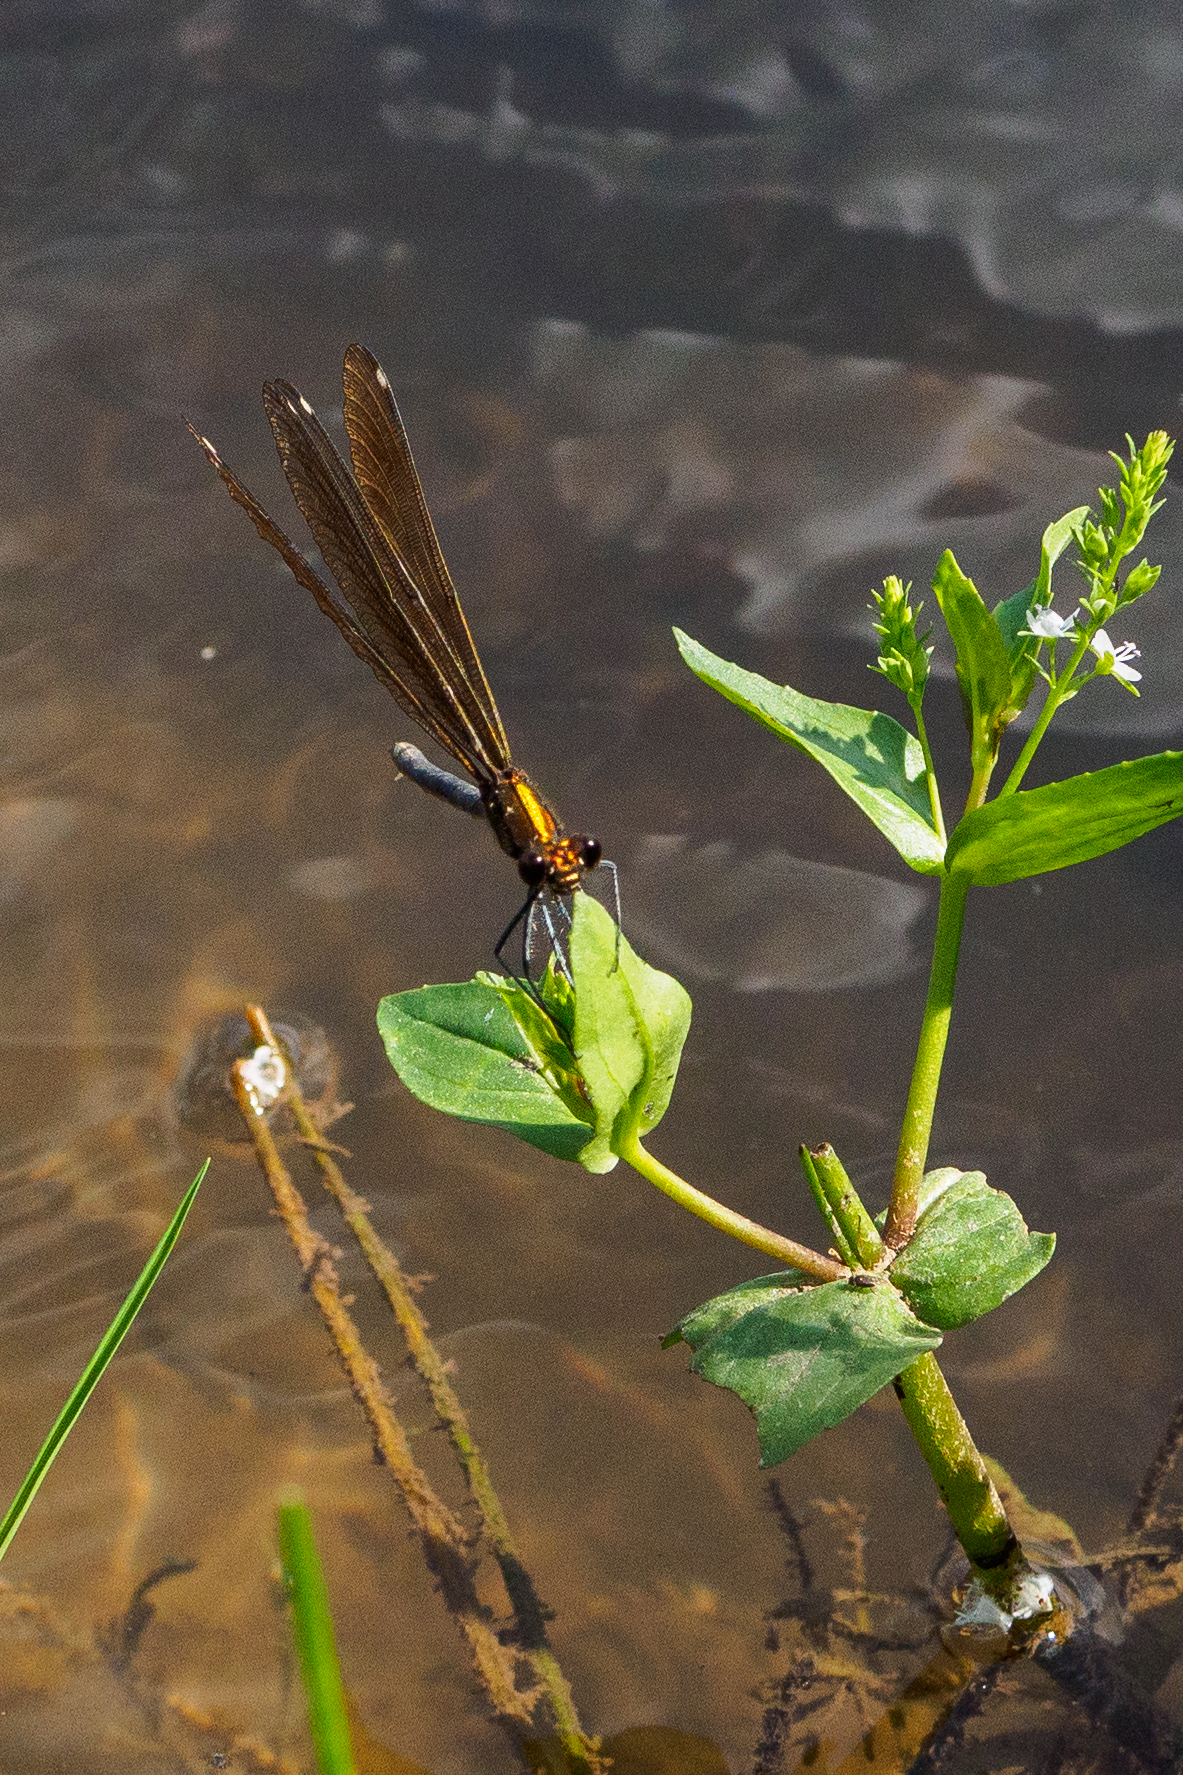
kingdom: Animalia
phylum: Arthropoda
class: Insecta
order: Odonata
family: Calopterygidae
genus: Calopteryx
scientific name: Calopteryx virgo
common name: Beautiful demoiselle
